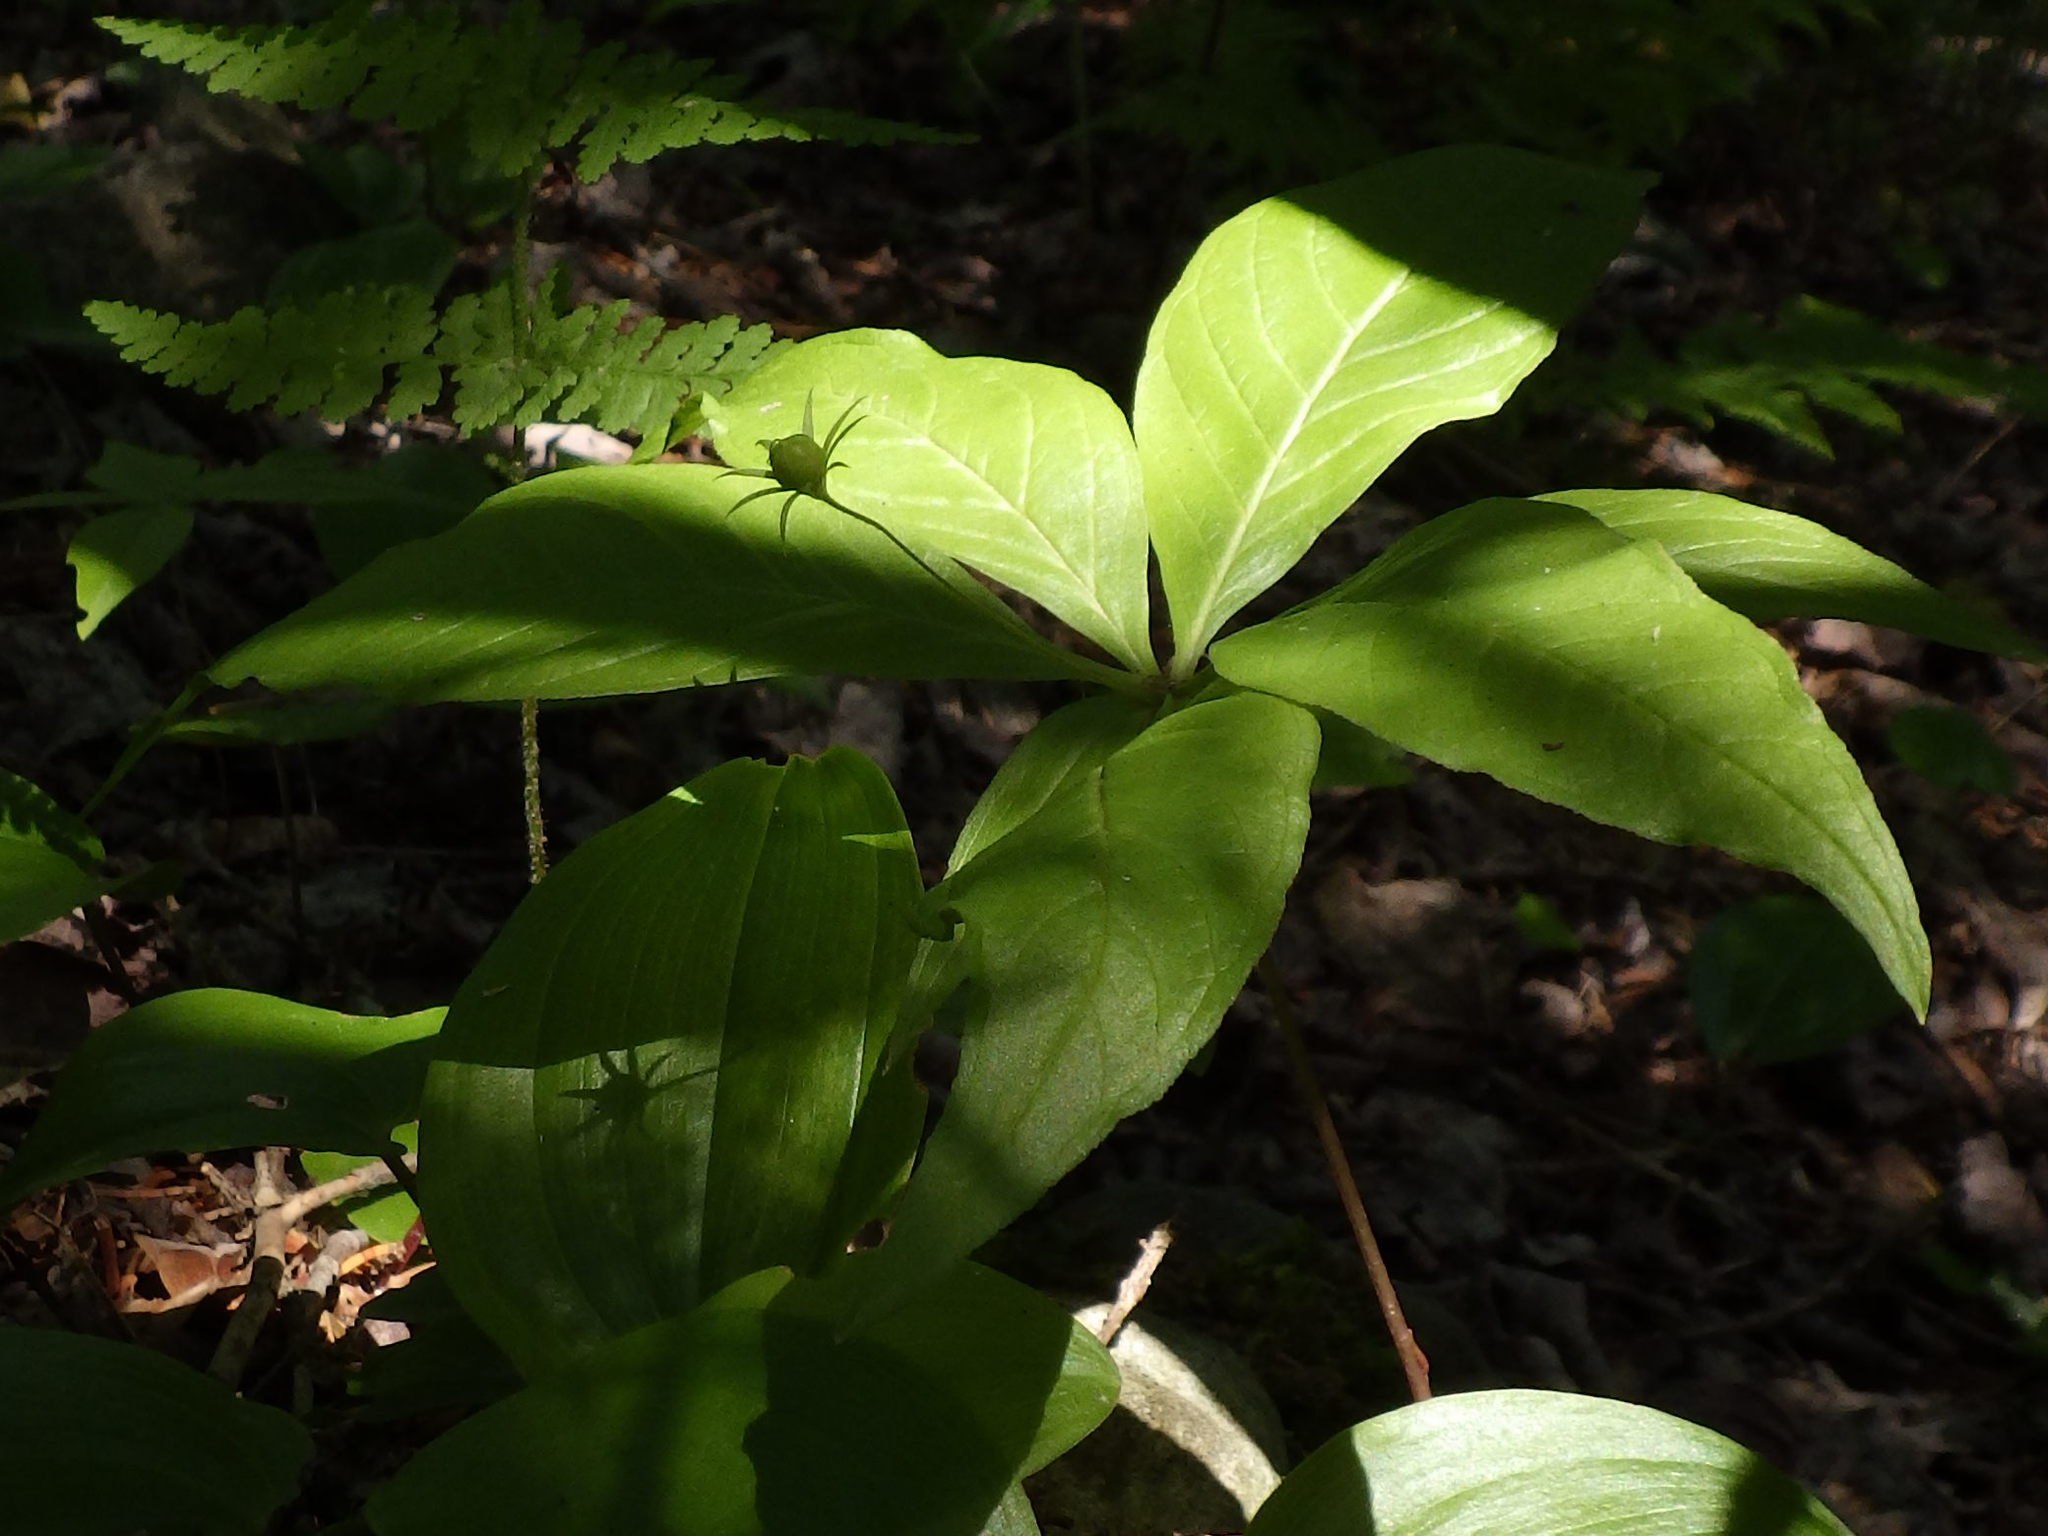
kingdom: Plantae
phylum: Tracheophyta
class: Magnoliopsida
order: Ericales
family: Primulaceae
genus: Lysimachia
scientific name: Lysimachia borealis
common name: American starflower
